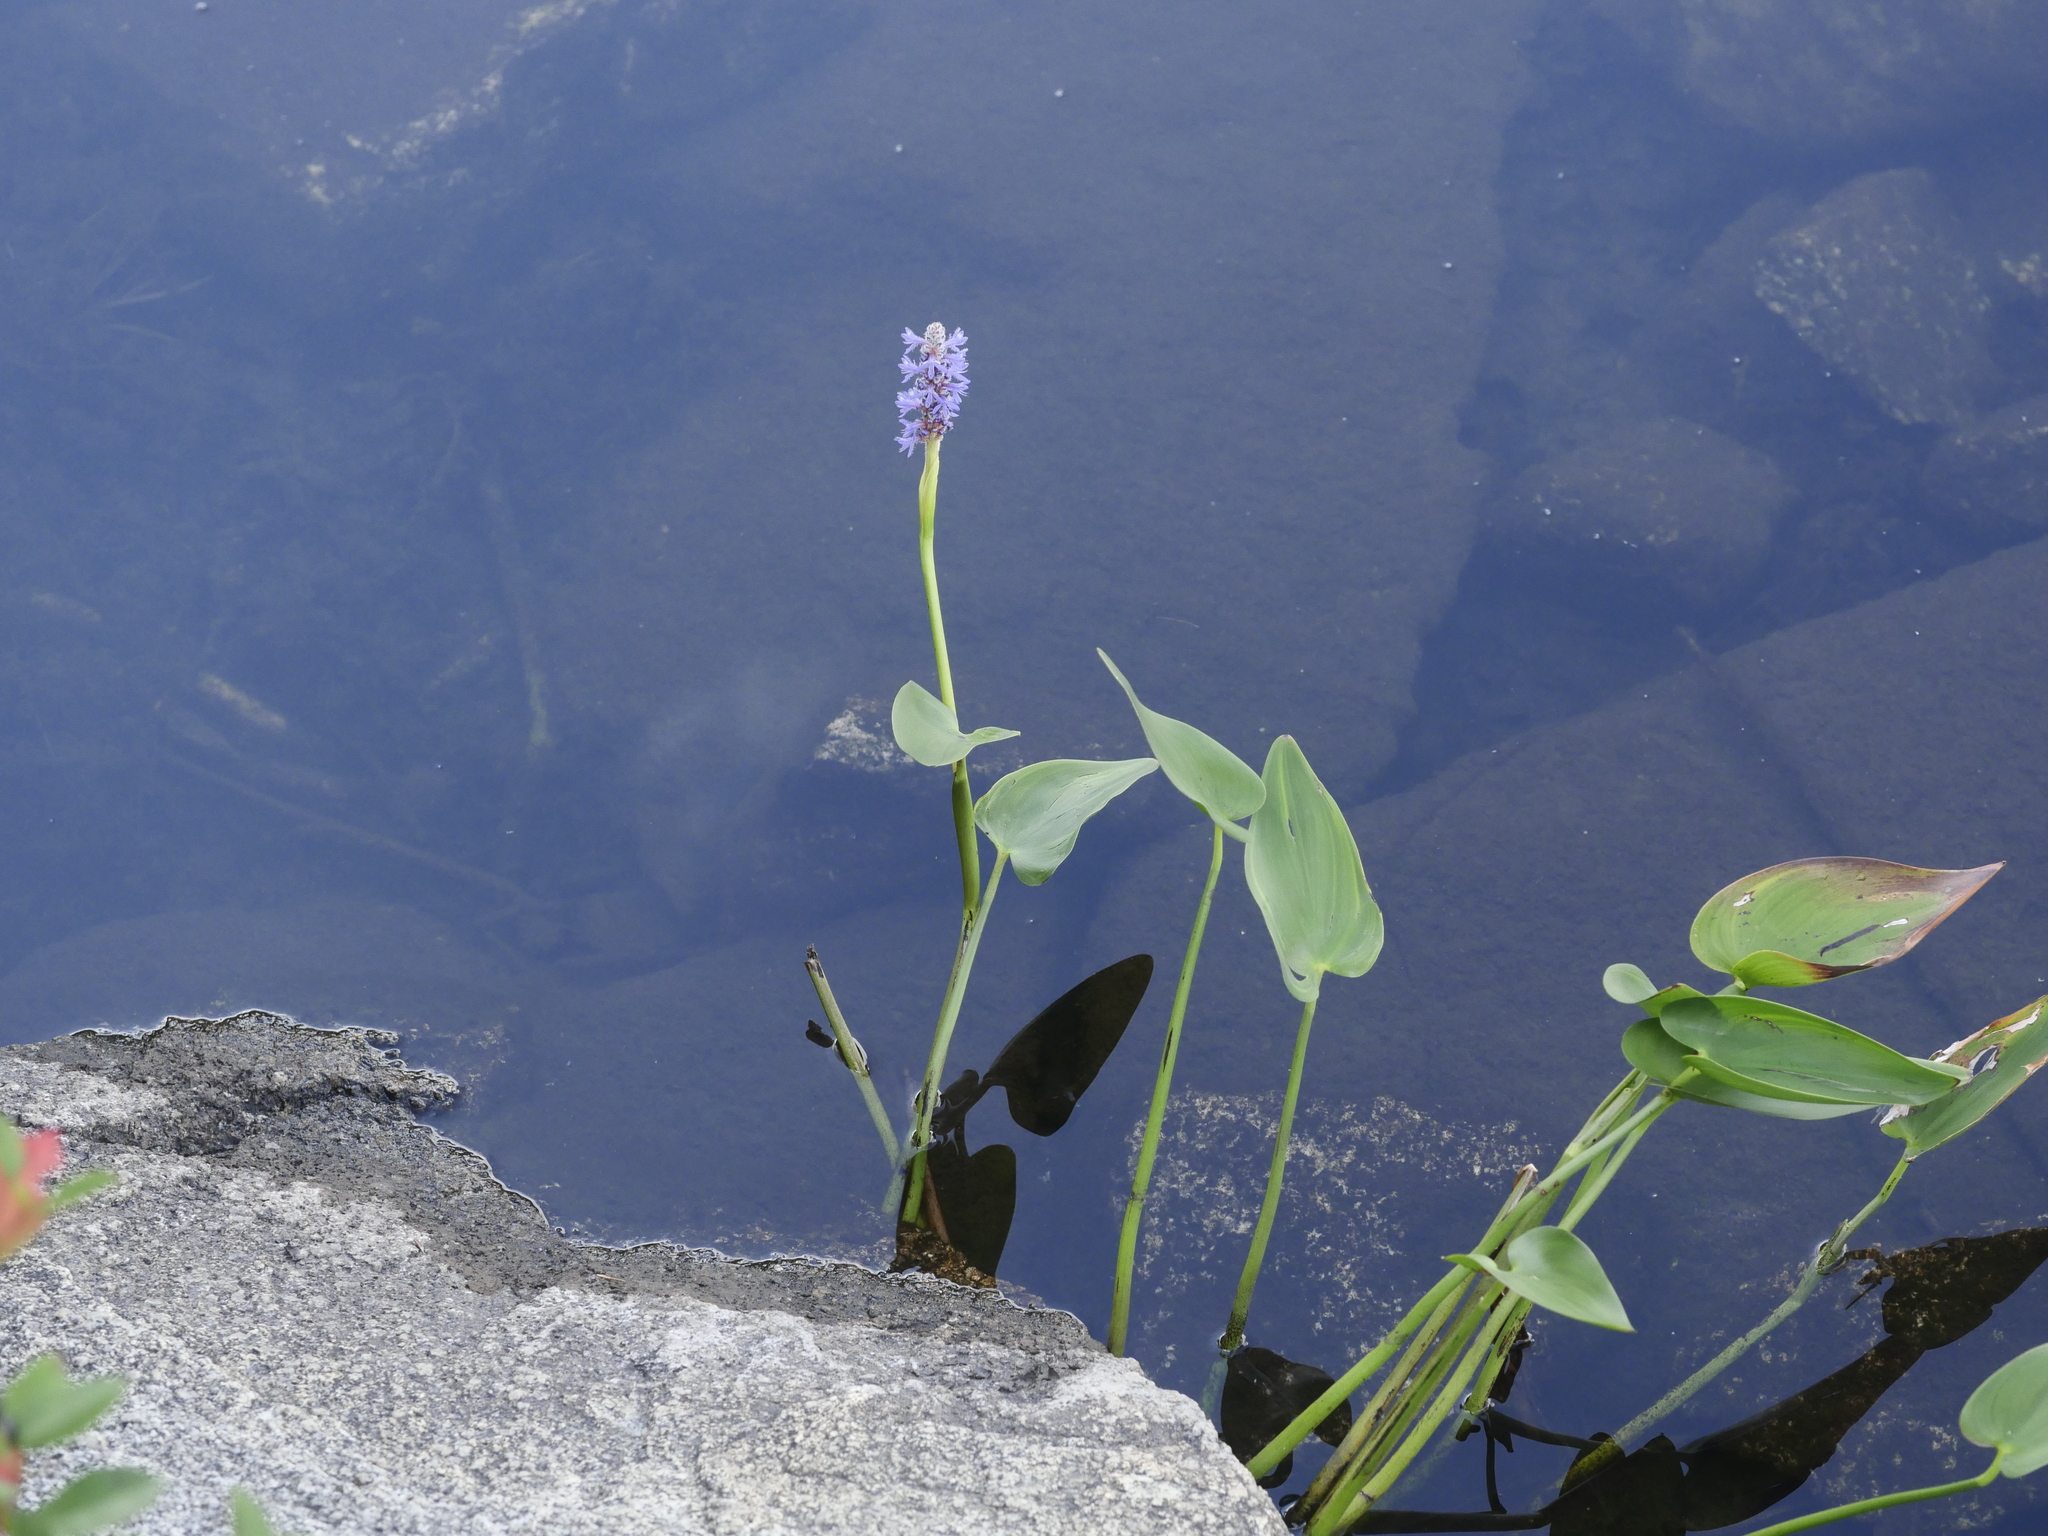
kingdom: Plantae
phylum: Tracheophyta
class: Liliopsida
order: Commelinales
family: Pontederiaceae
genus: Pontederia
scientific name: Pontederia cordata
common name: Pickerelweed
